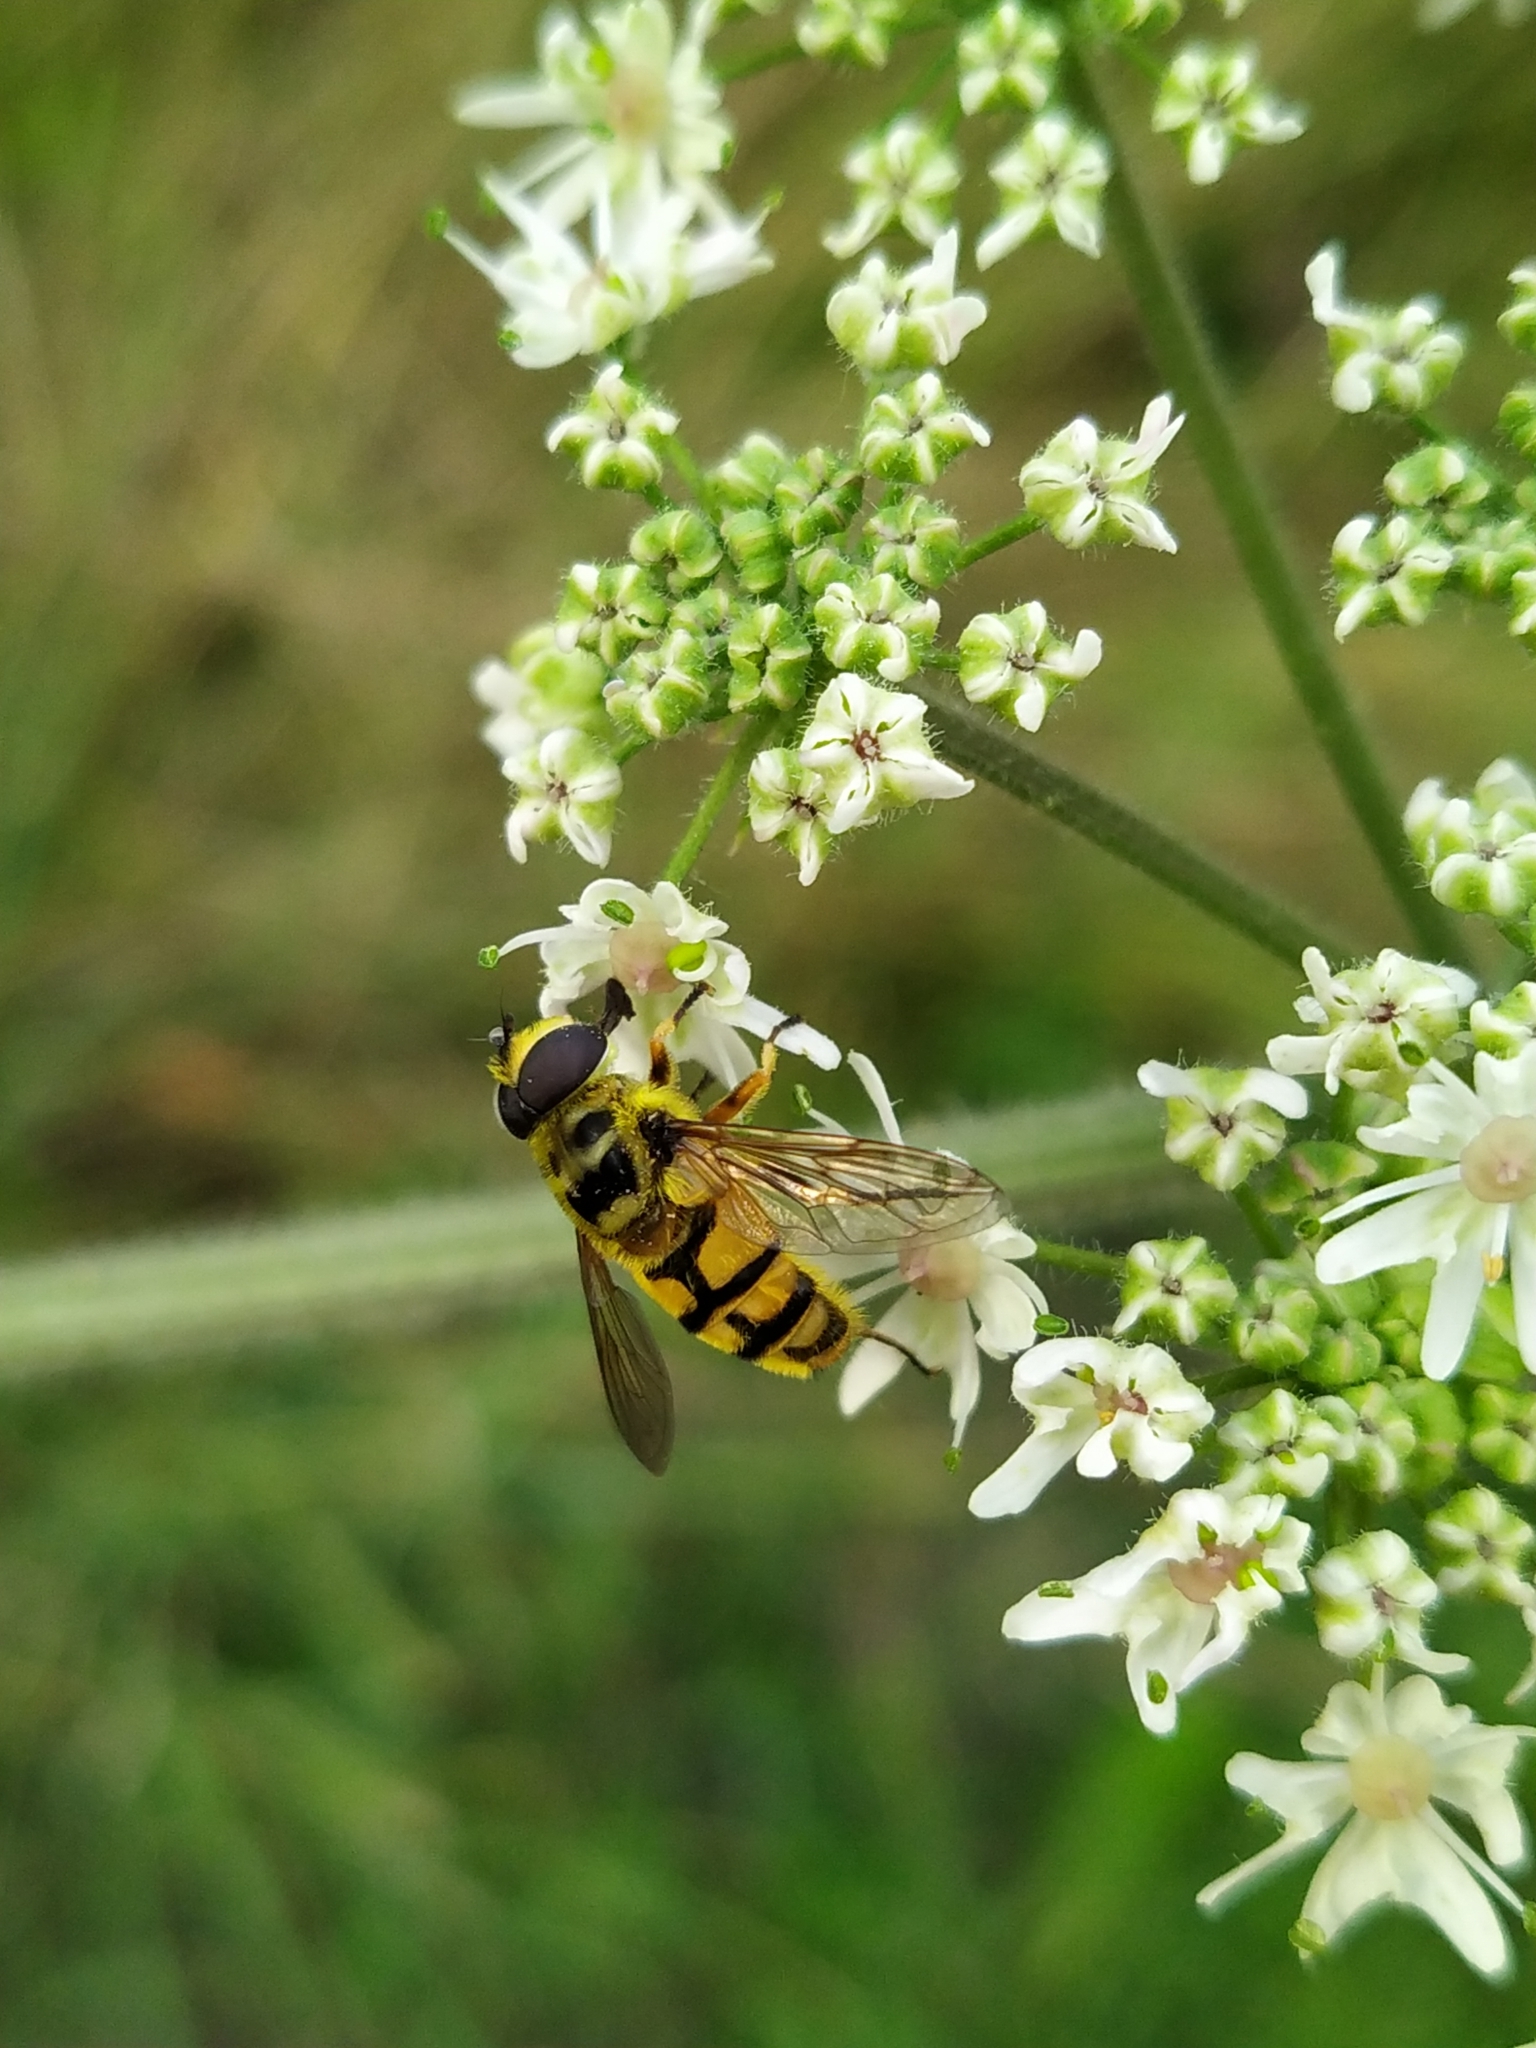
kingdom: Animalia
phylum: Arthropoda
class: Insecta
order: Diptera
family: Syrphidae
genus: Myathropa
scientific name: Myathropa florea
